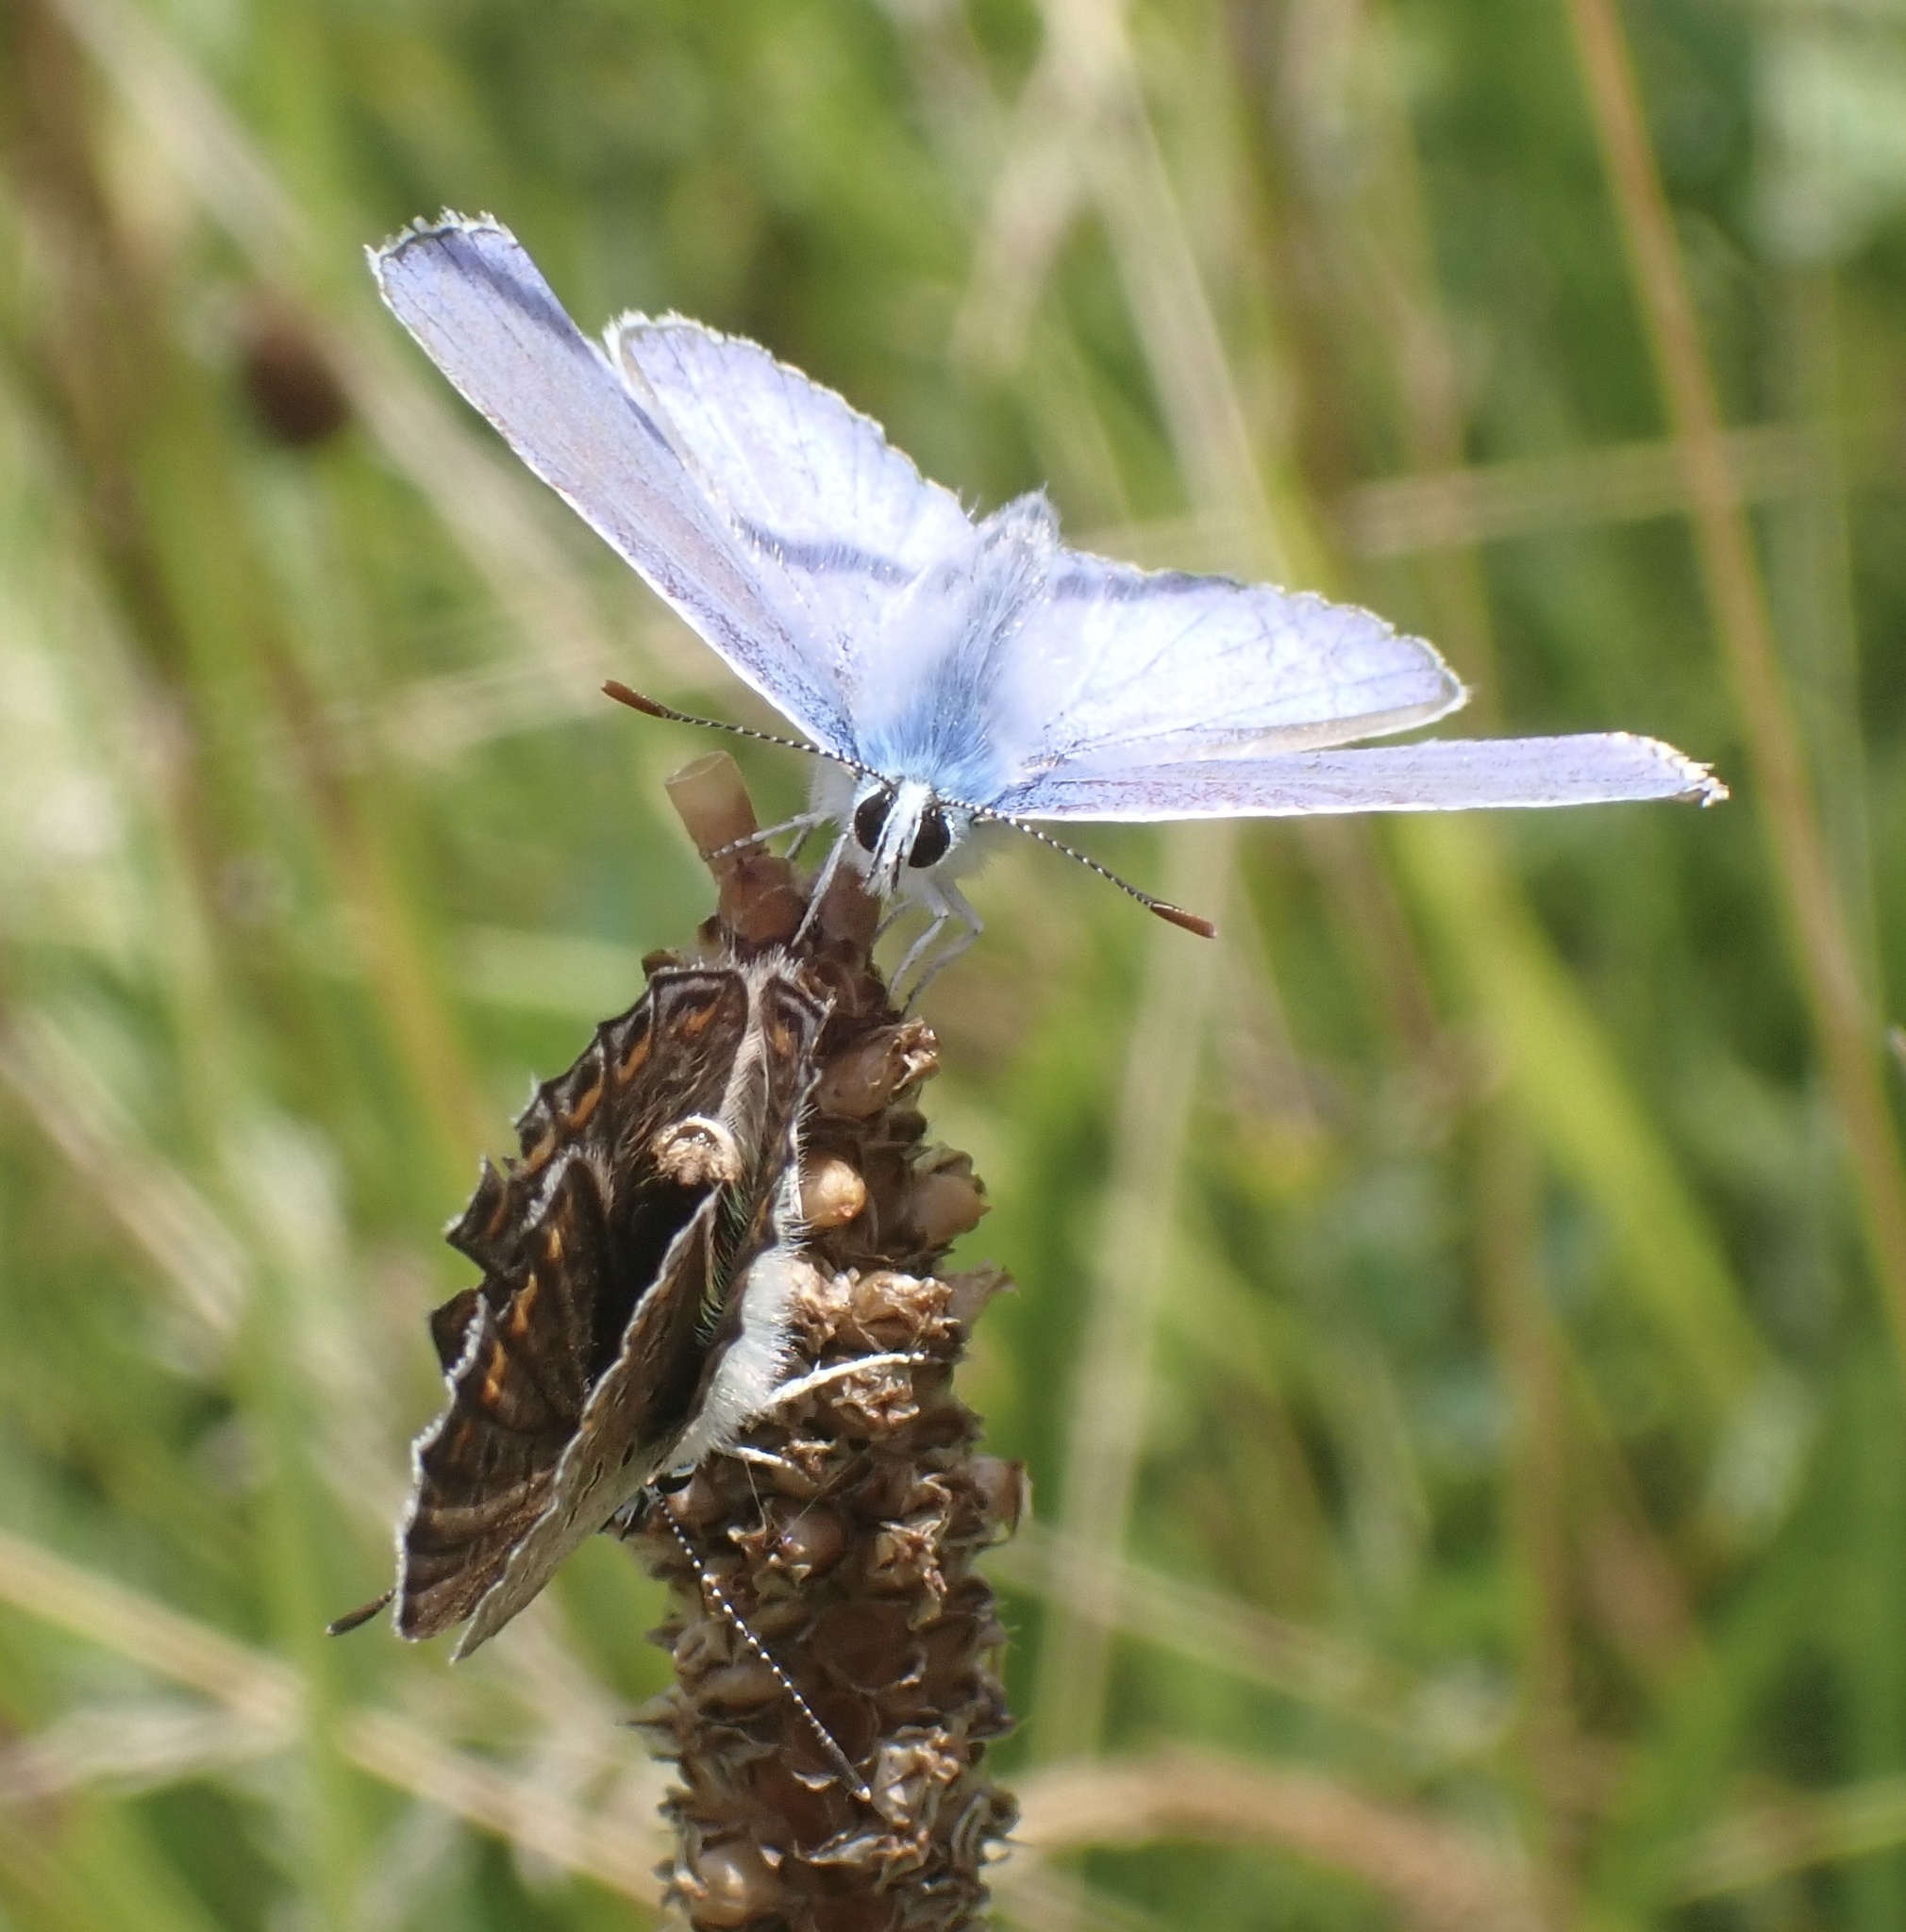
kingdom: Animalia
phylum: Arthropoda
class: Insecta
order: Lepidoptera
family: Lycaenidae
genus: Polyommatus
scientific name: Polyommatus icarus
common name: Common blue
